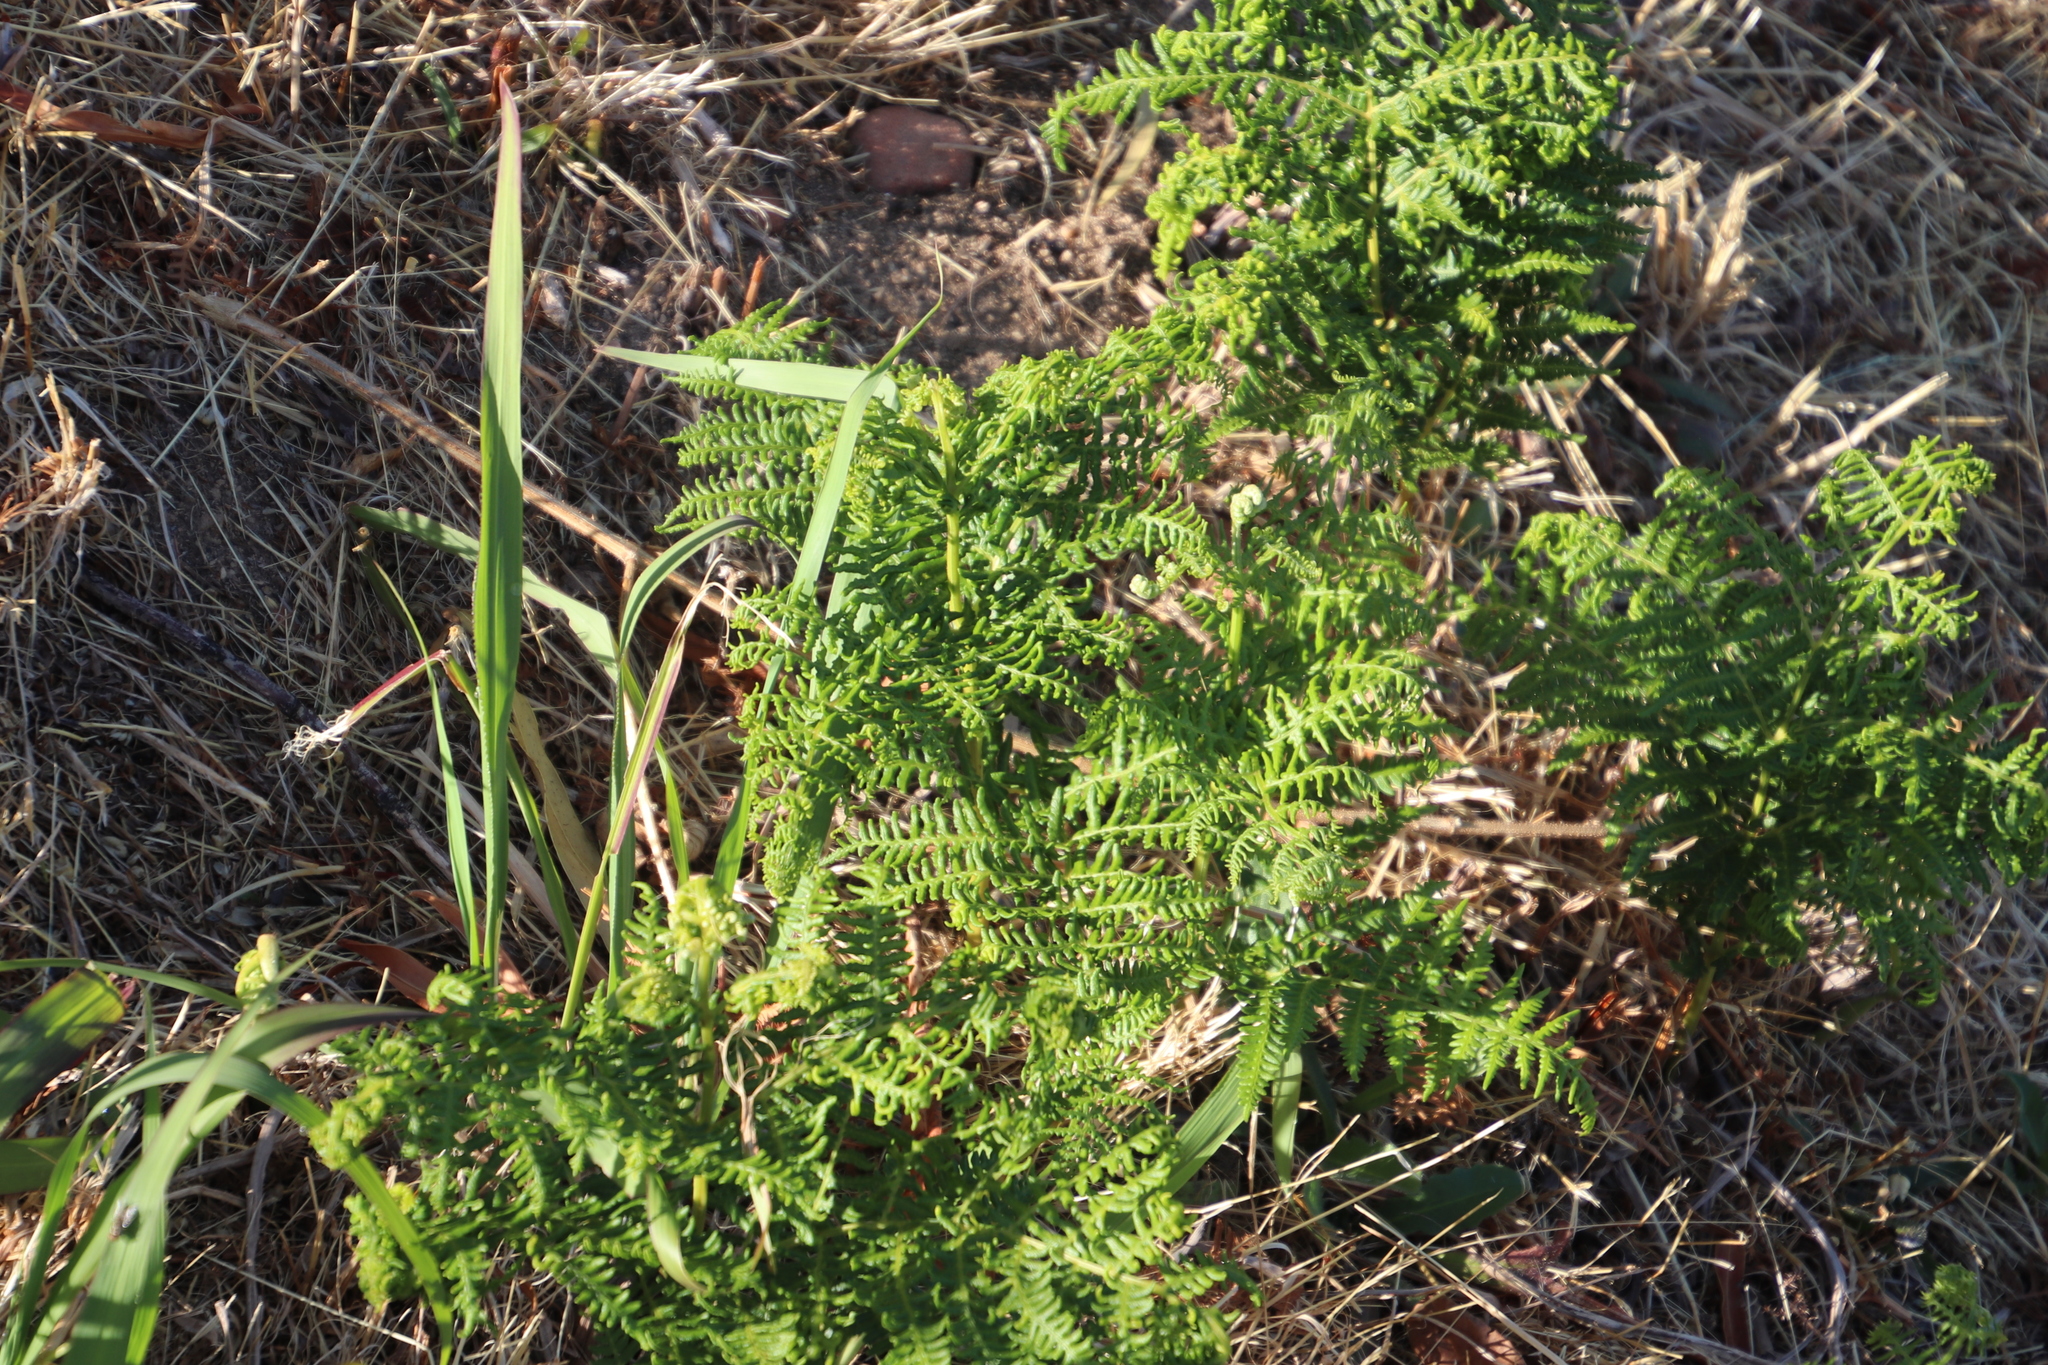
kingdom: Plantae
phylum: Tracheophyta
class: Polypodiopsida
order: Polypodiales
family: Dennstaedtiaceae
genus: Pteridium
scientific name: Pteridium aquilinum
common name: Bracken
